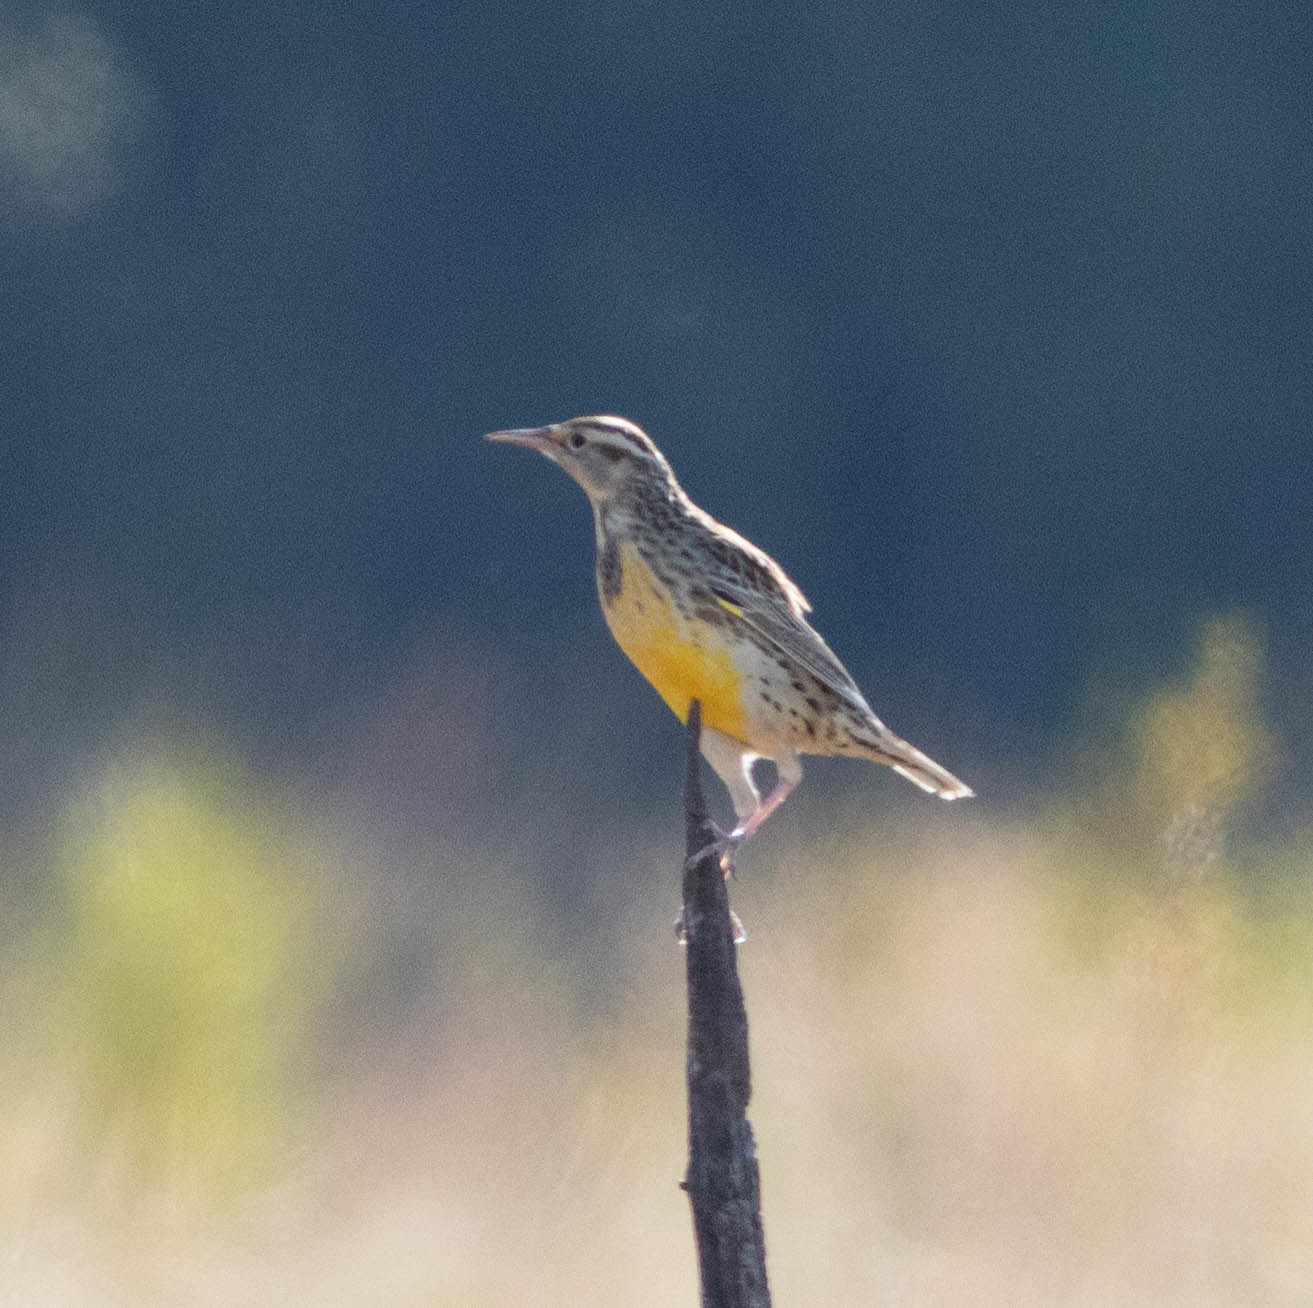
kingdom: Animalia
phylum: Chordata
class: Aves
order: Passeriformes
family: Icteridae
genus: Sturnella
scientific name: Sturnella neglecta
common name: Western meadowlark
